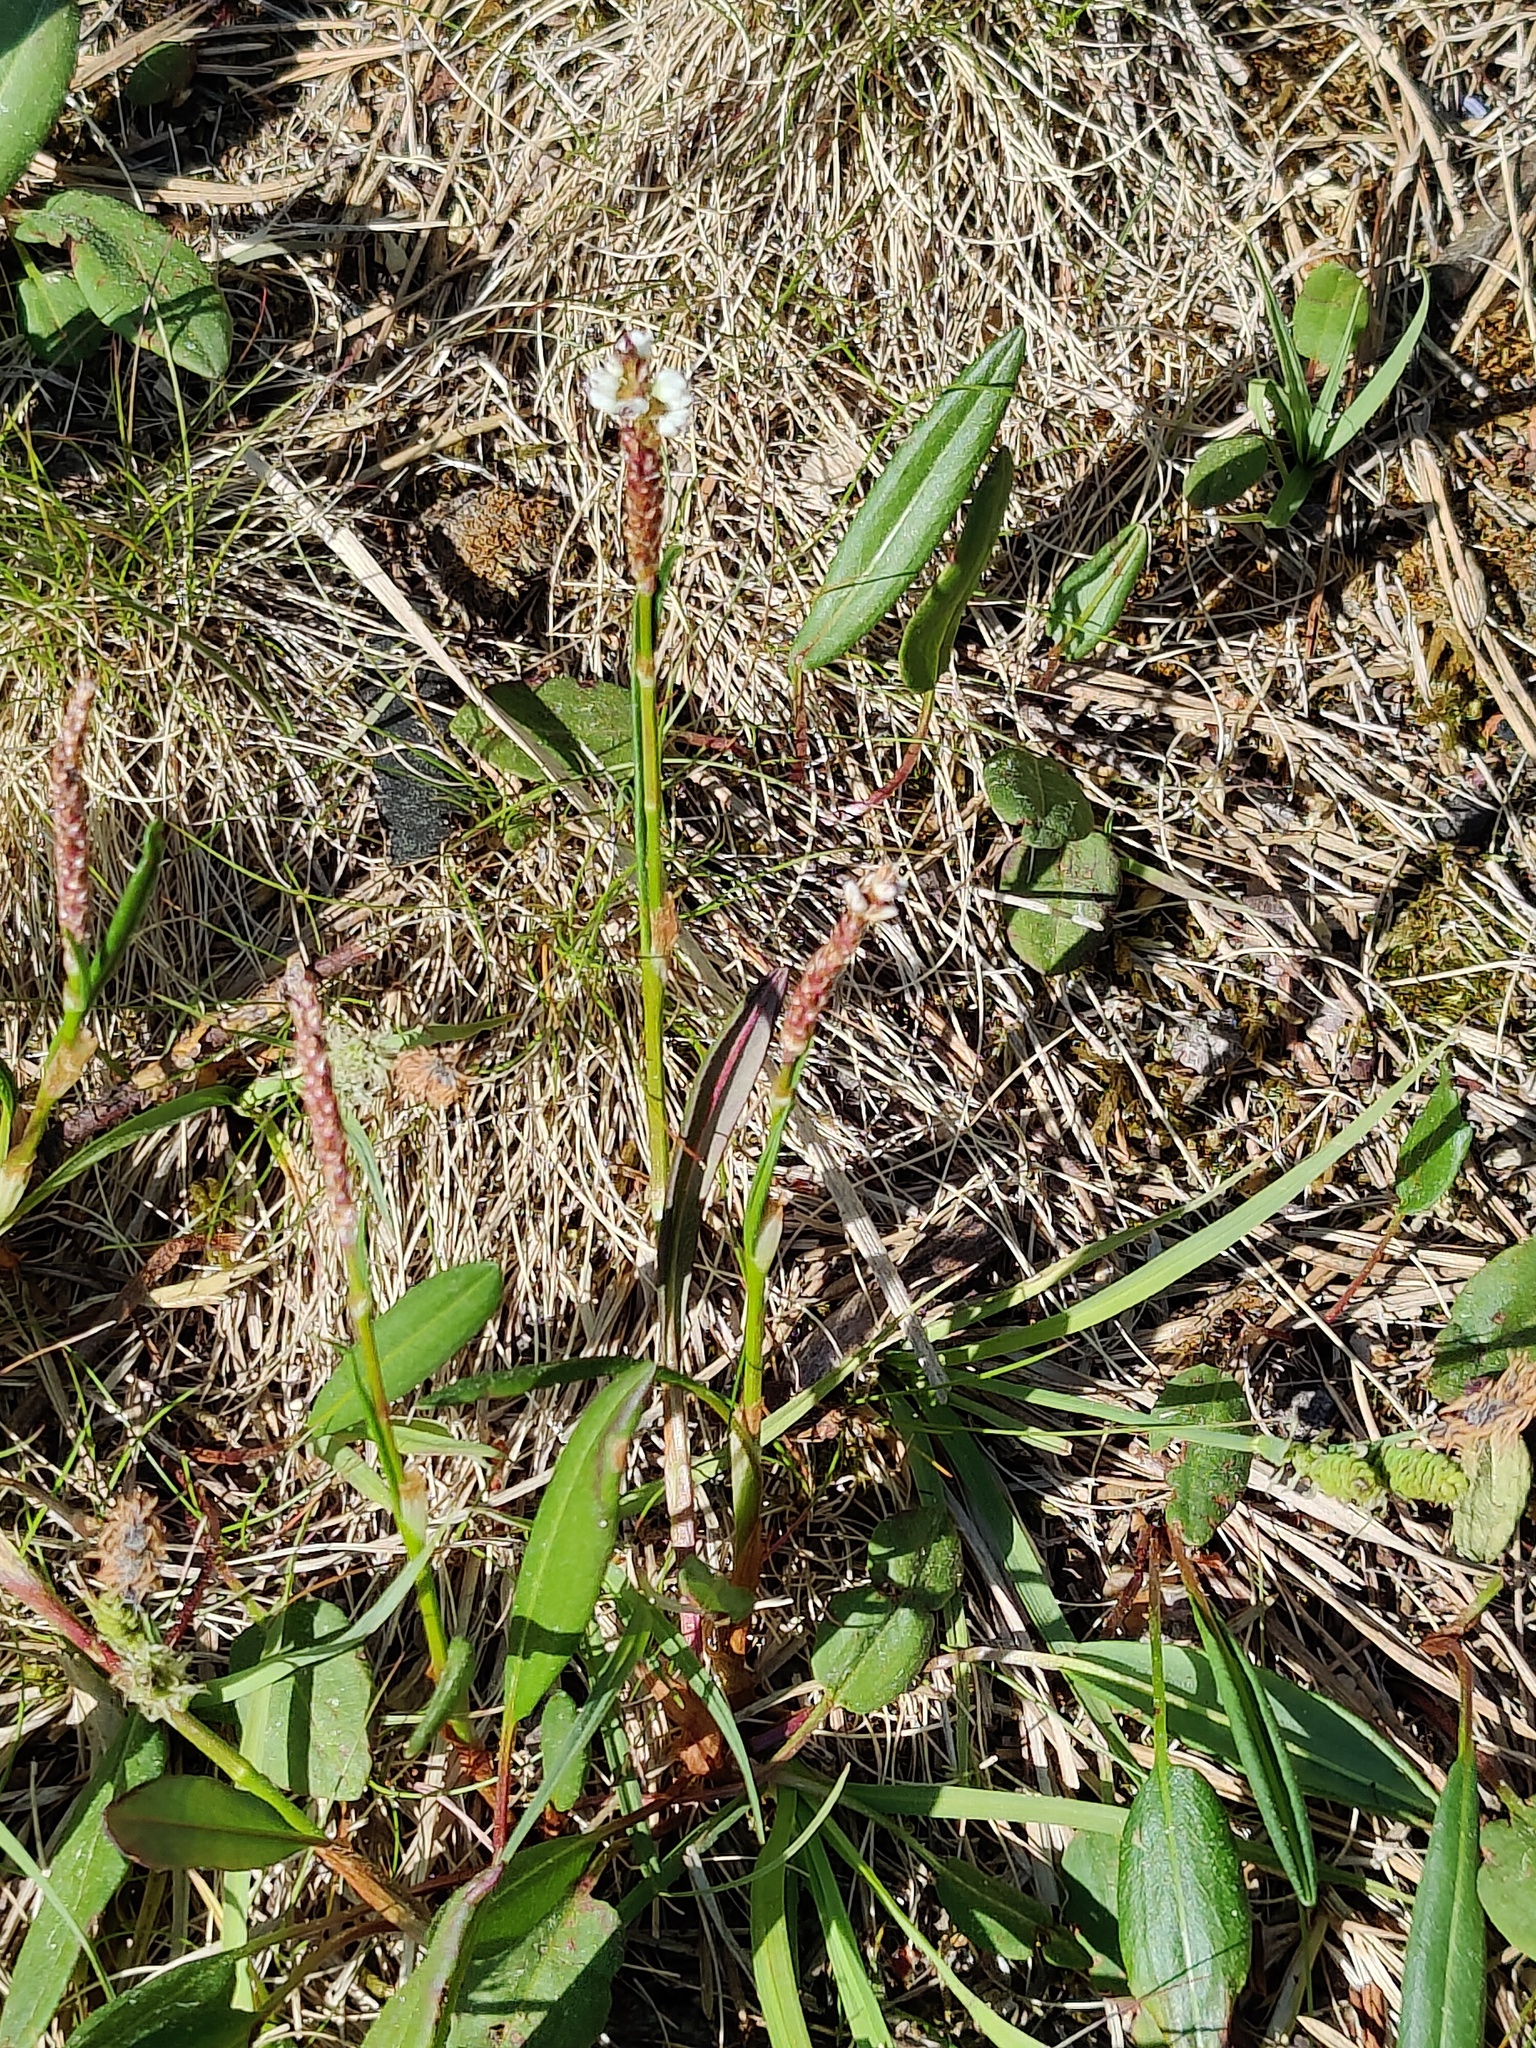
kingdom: Plantae
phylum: Tracheophyta
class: Magnoliopsida
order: Caryophyllales
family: Polygonaceae
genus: Bistorta
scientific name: Bistorta vivipara
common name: Alpine bistort
